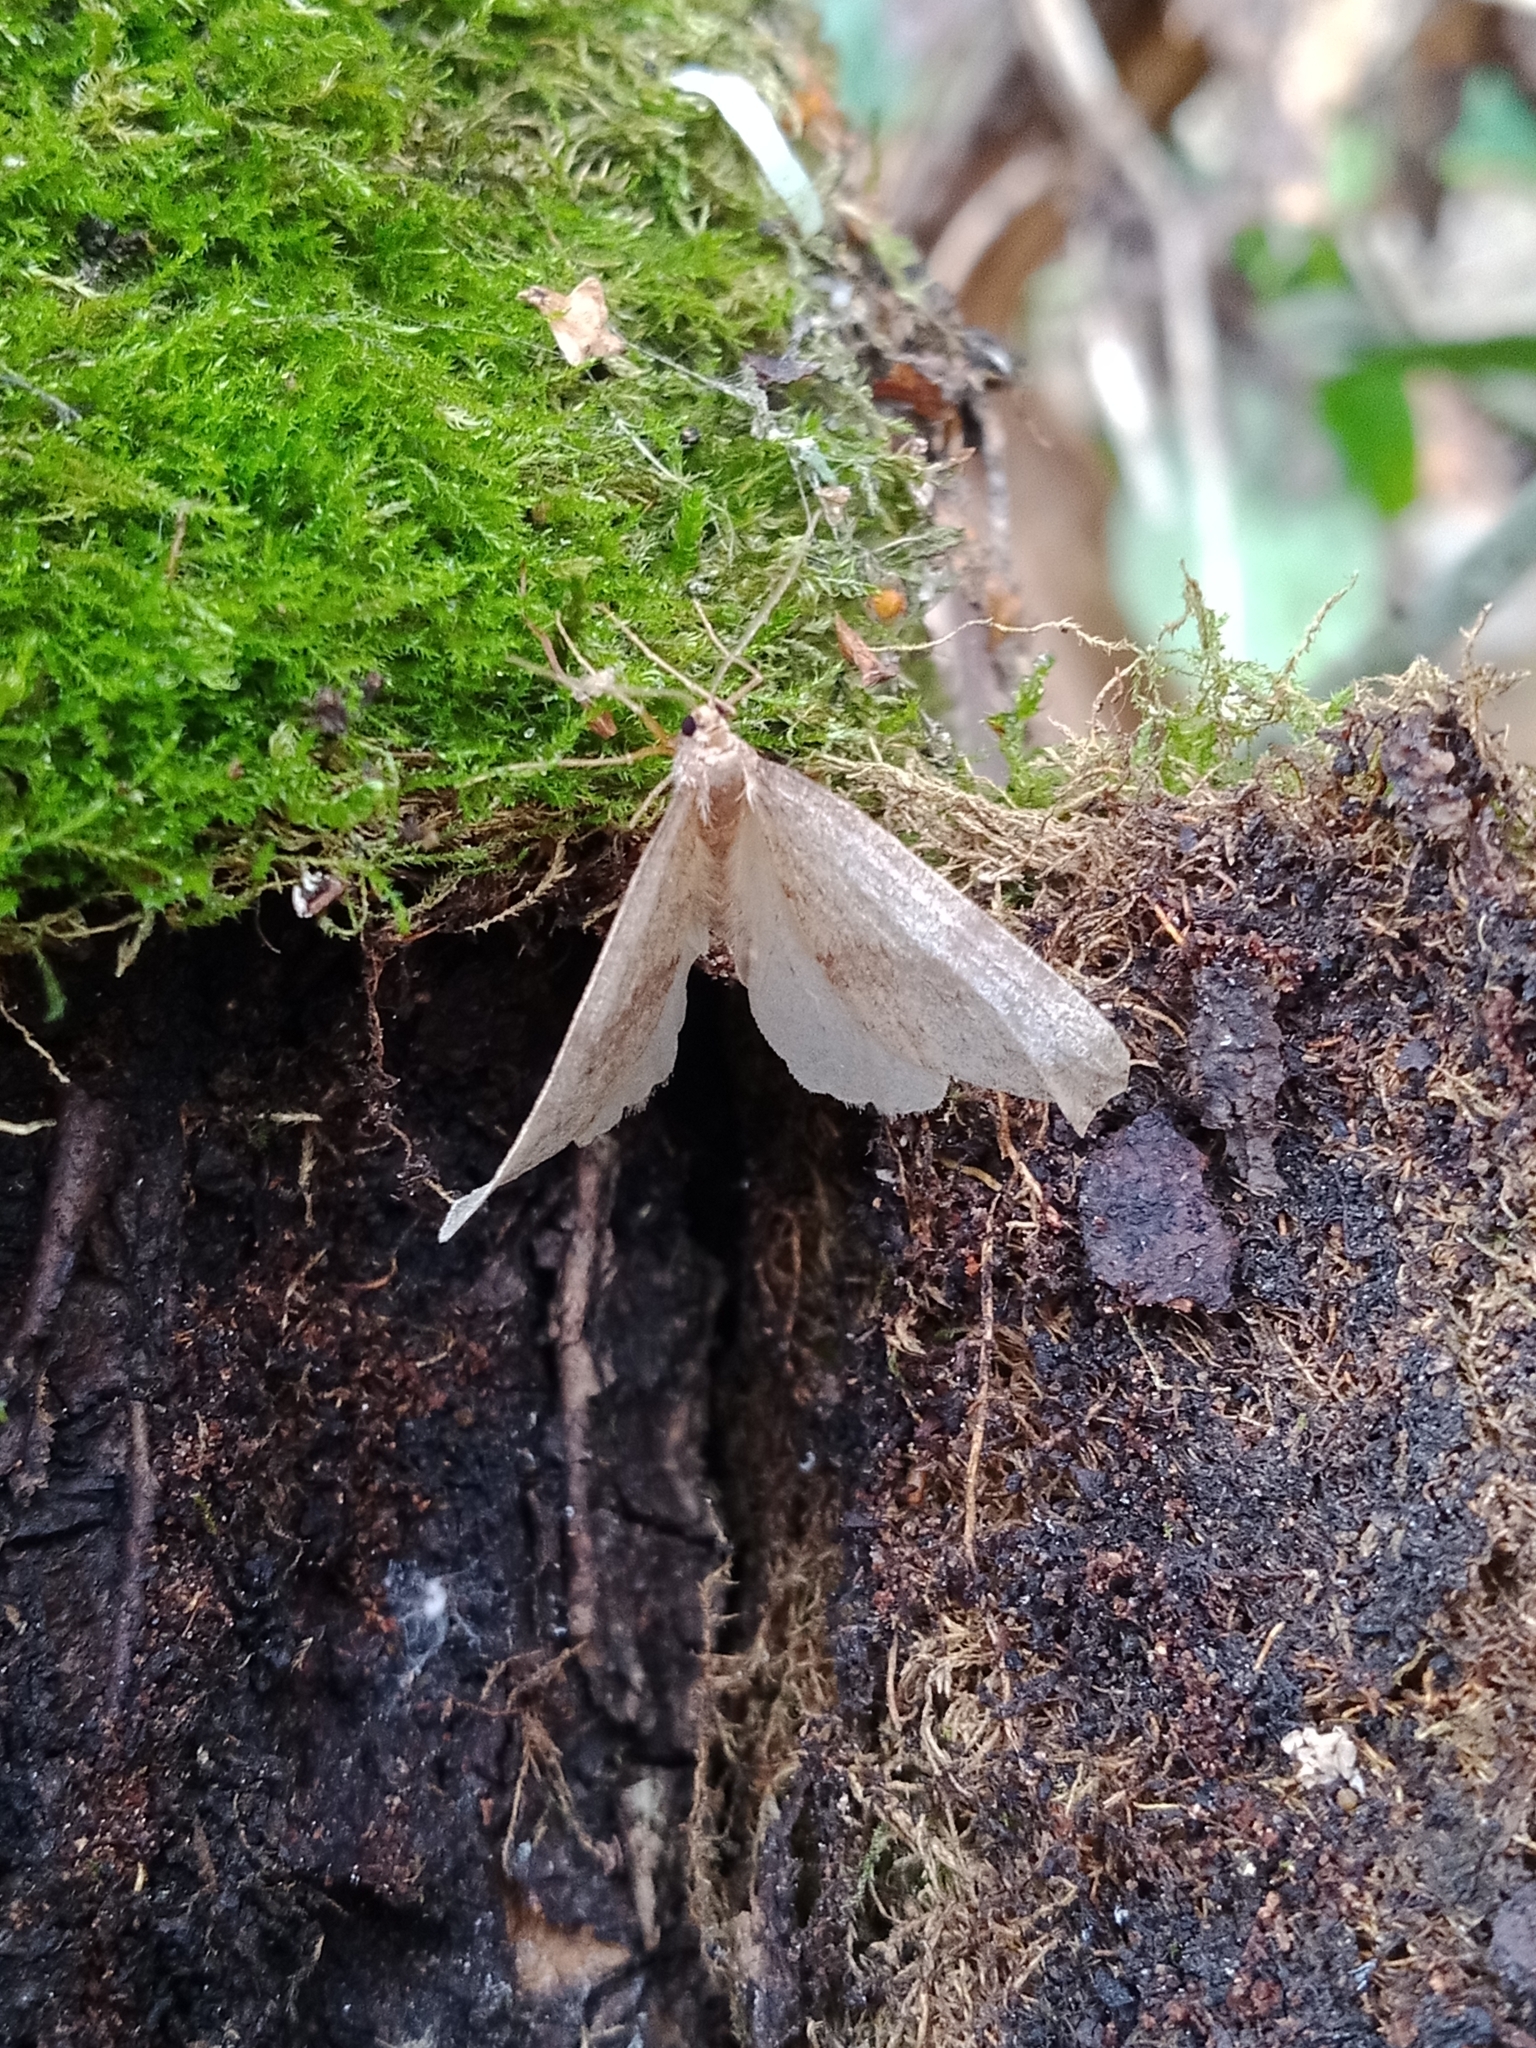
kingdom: Animalia
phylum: Arthropoda
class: Insecta
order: Lepidoptera
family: Geometridae
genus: Operophtera
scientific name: Operophtera brumata
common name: Winter moth
